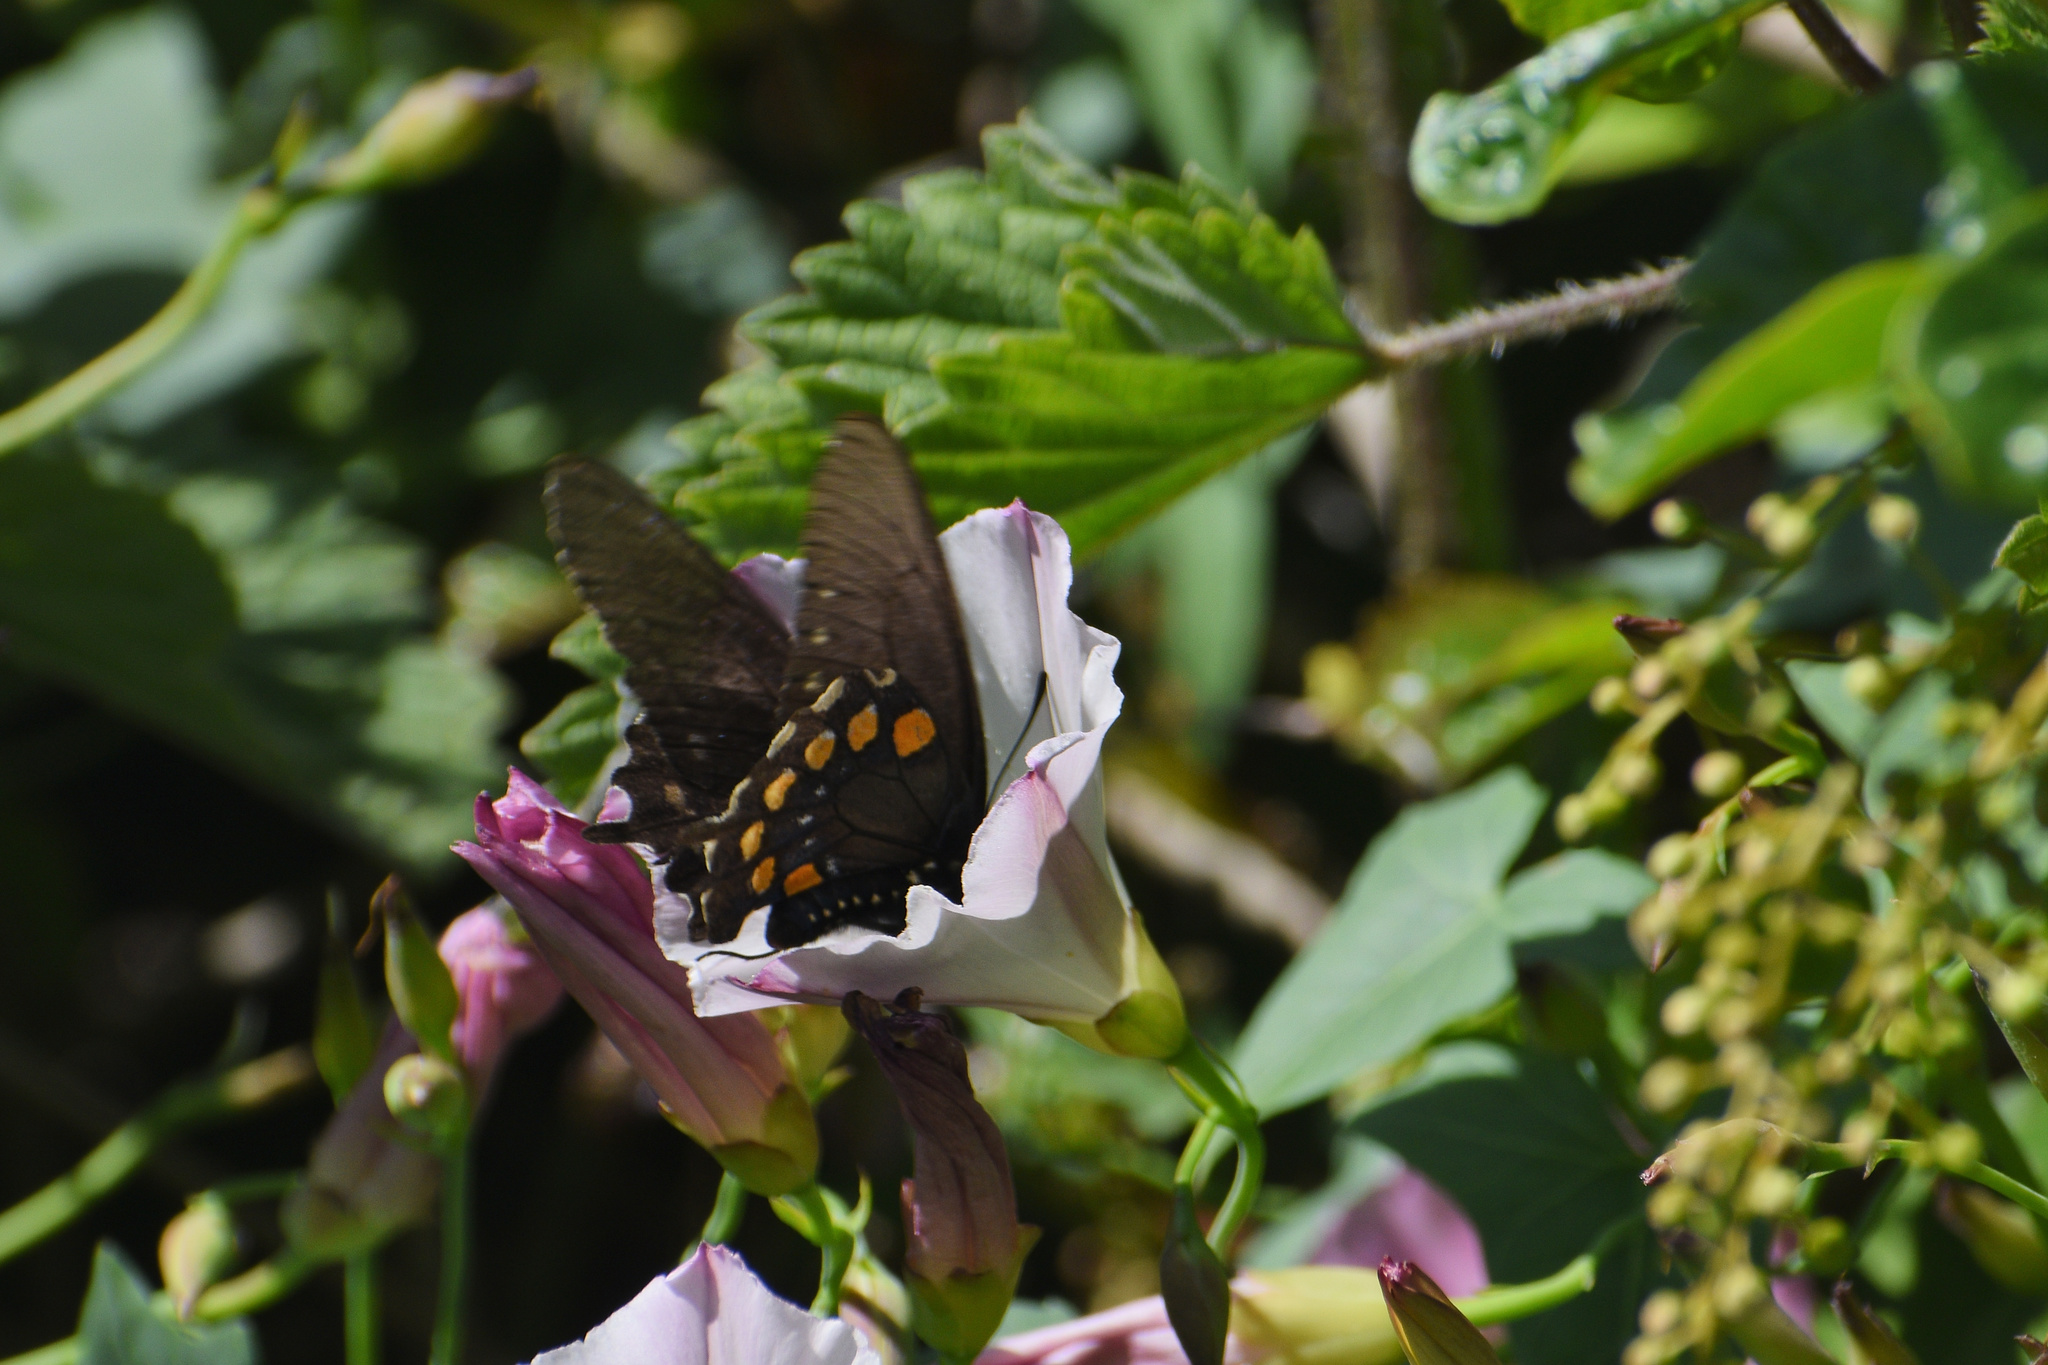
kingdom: Animalia
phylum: Arthropoda
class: Insecta
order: Lepidoptera
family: Papilionidae
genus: Battus
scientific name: Battus philenor
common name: Pipevine swallowtail
